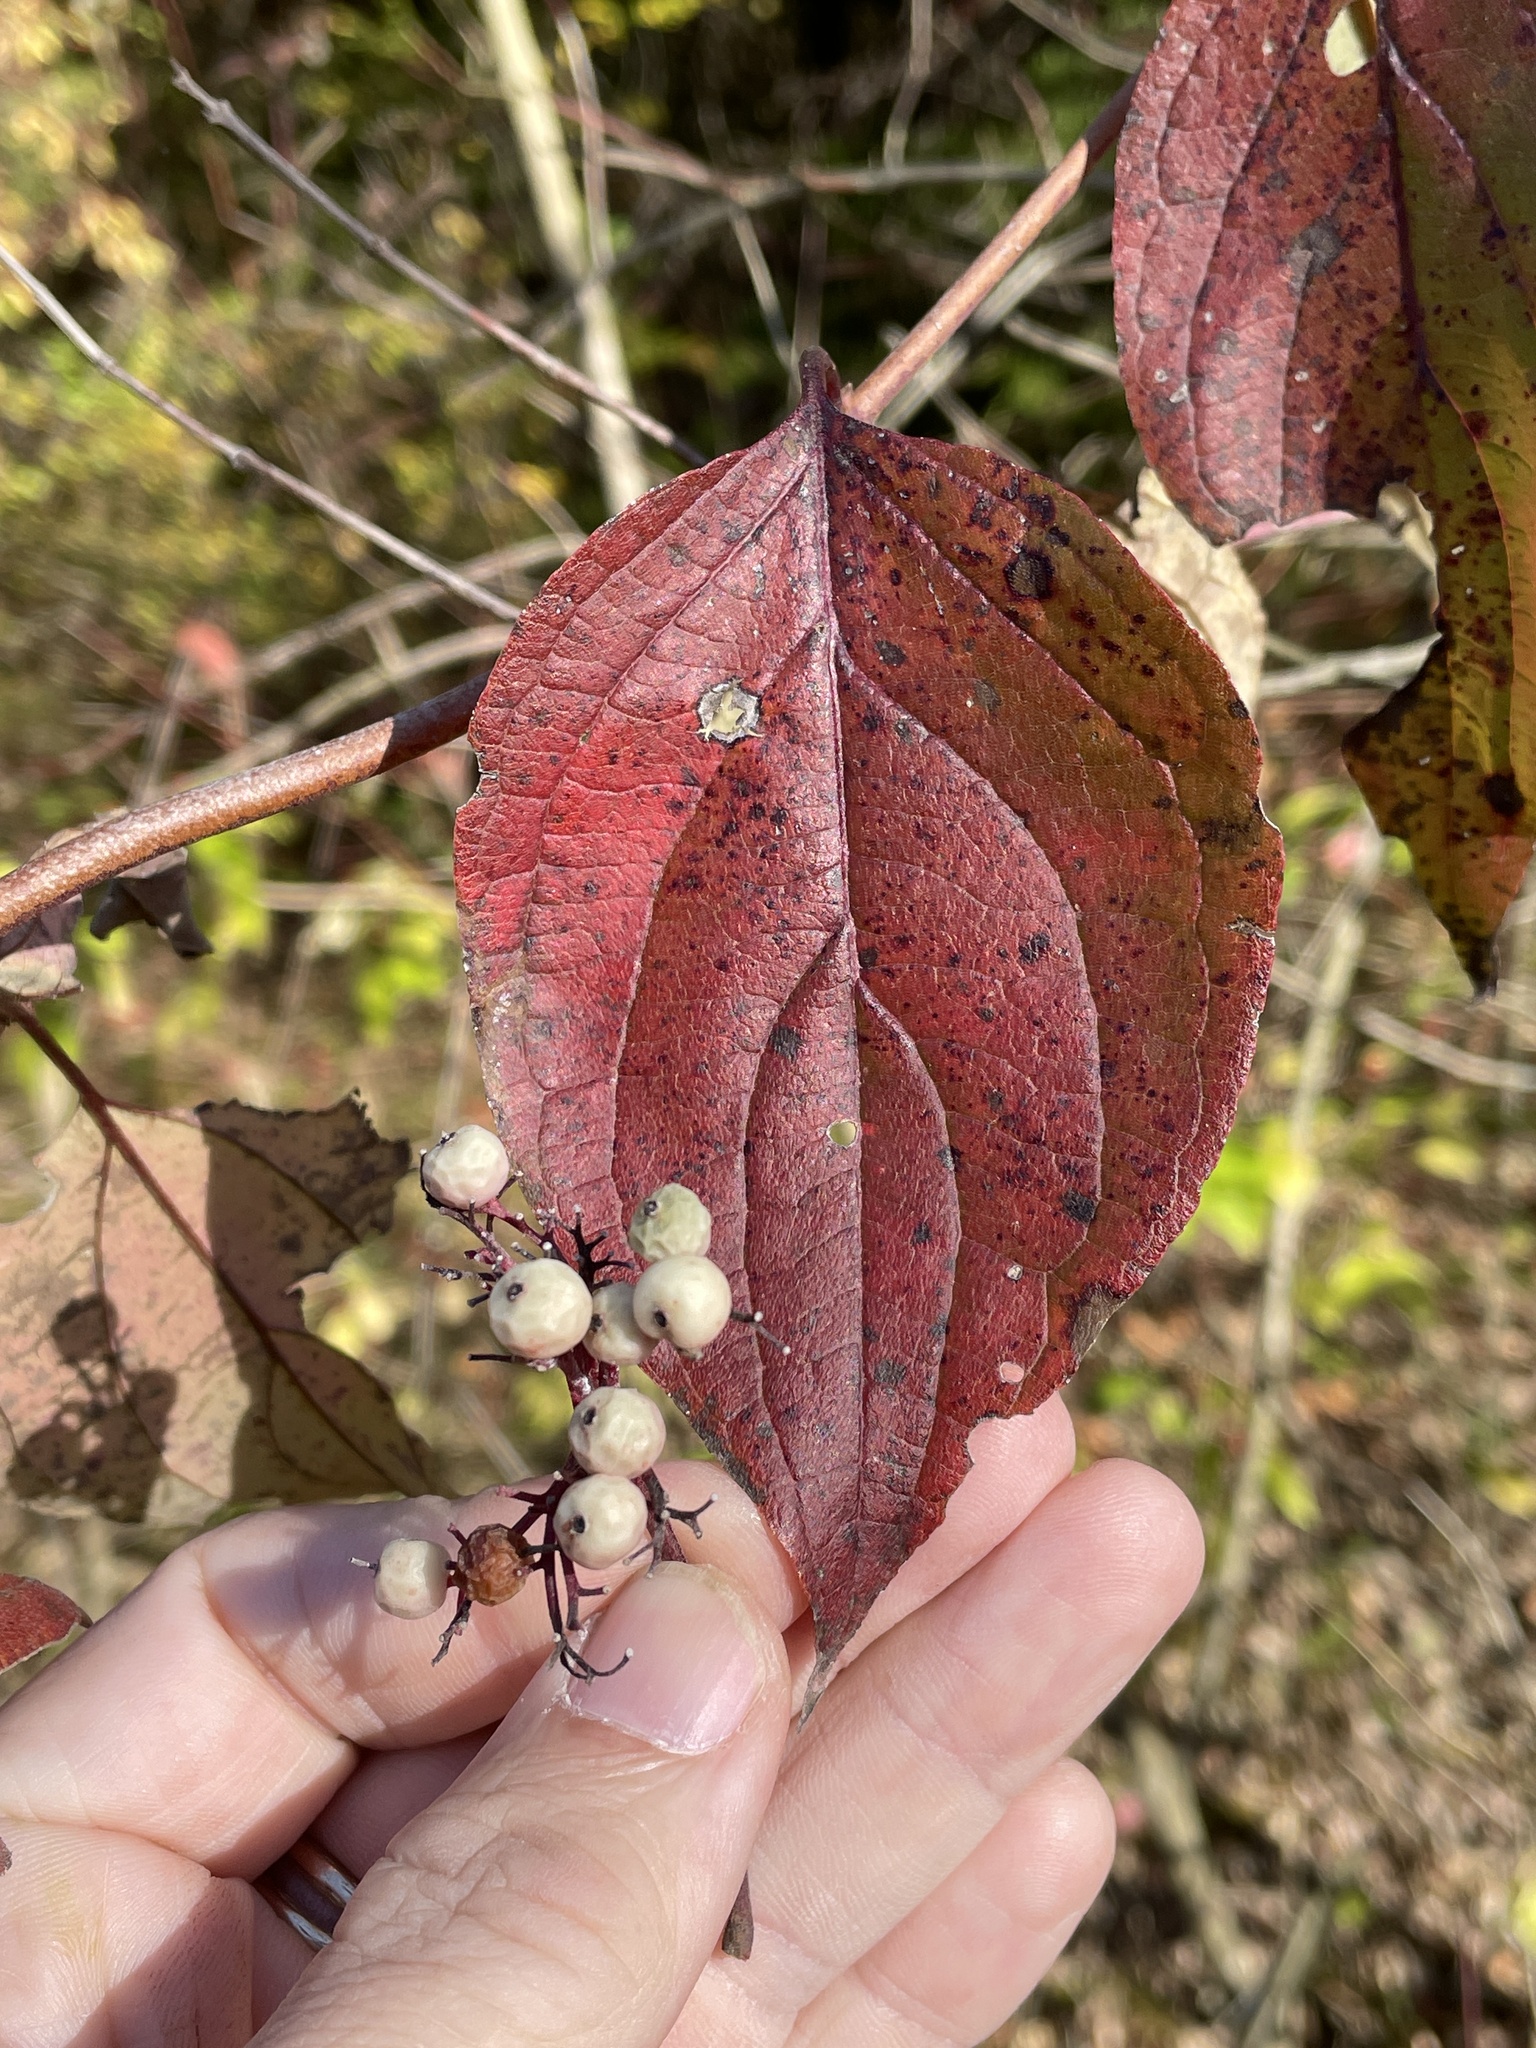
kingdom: Plantae
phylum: Tracheophyta
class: Magnoliopsida
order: Cornales
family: Cornaceae
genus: Cornus
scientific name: Cornus drummondii
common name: Rough-leaf dogwood
